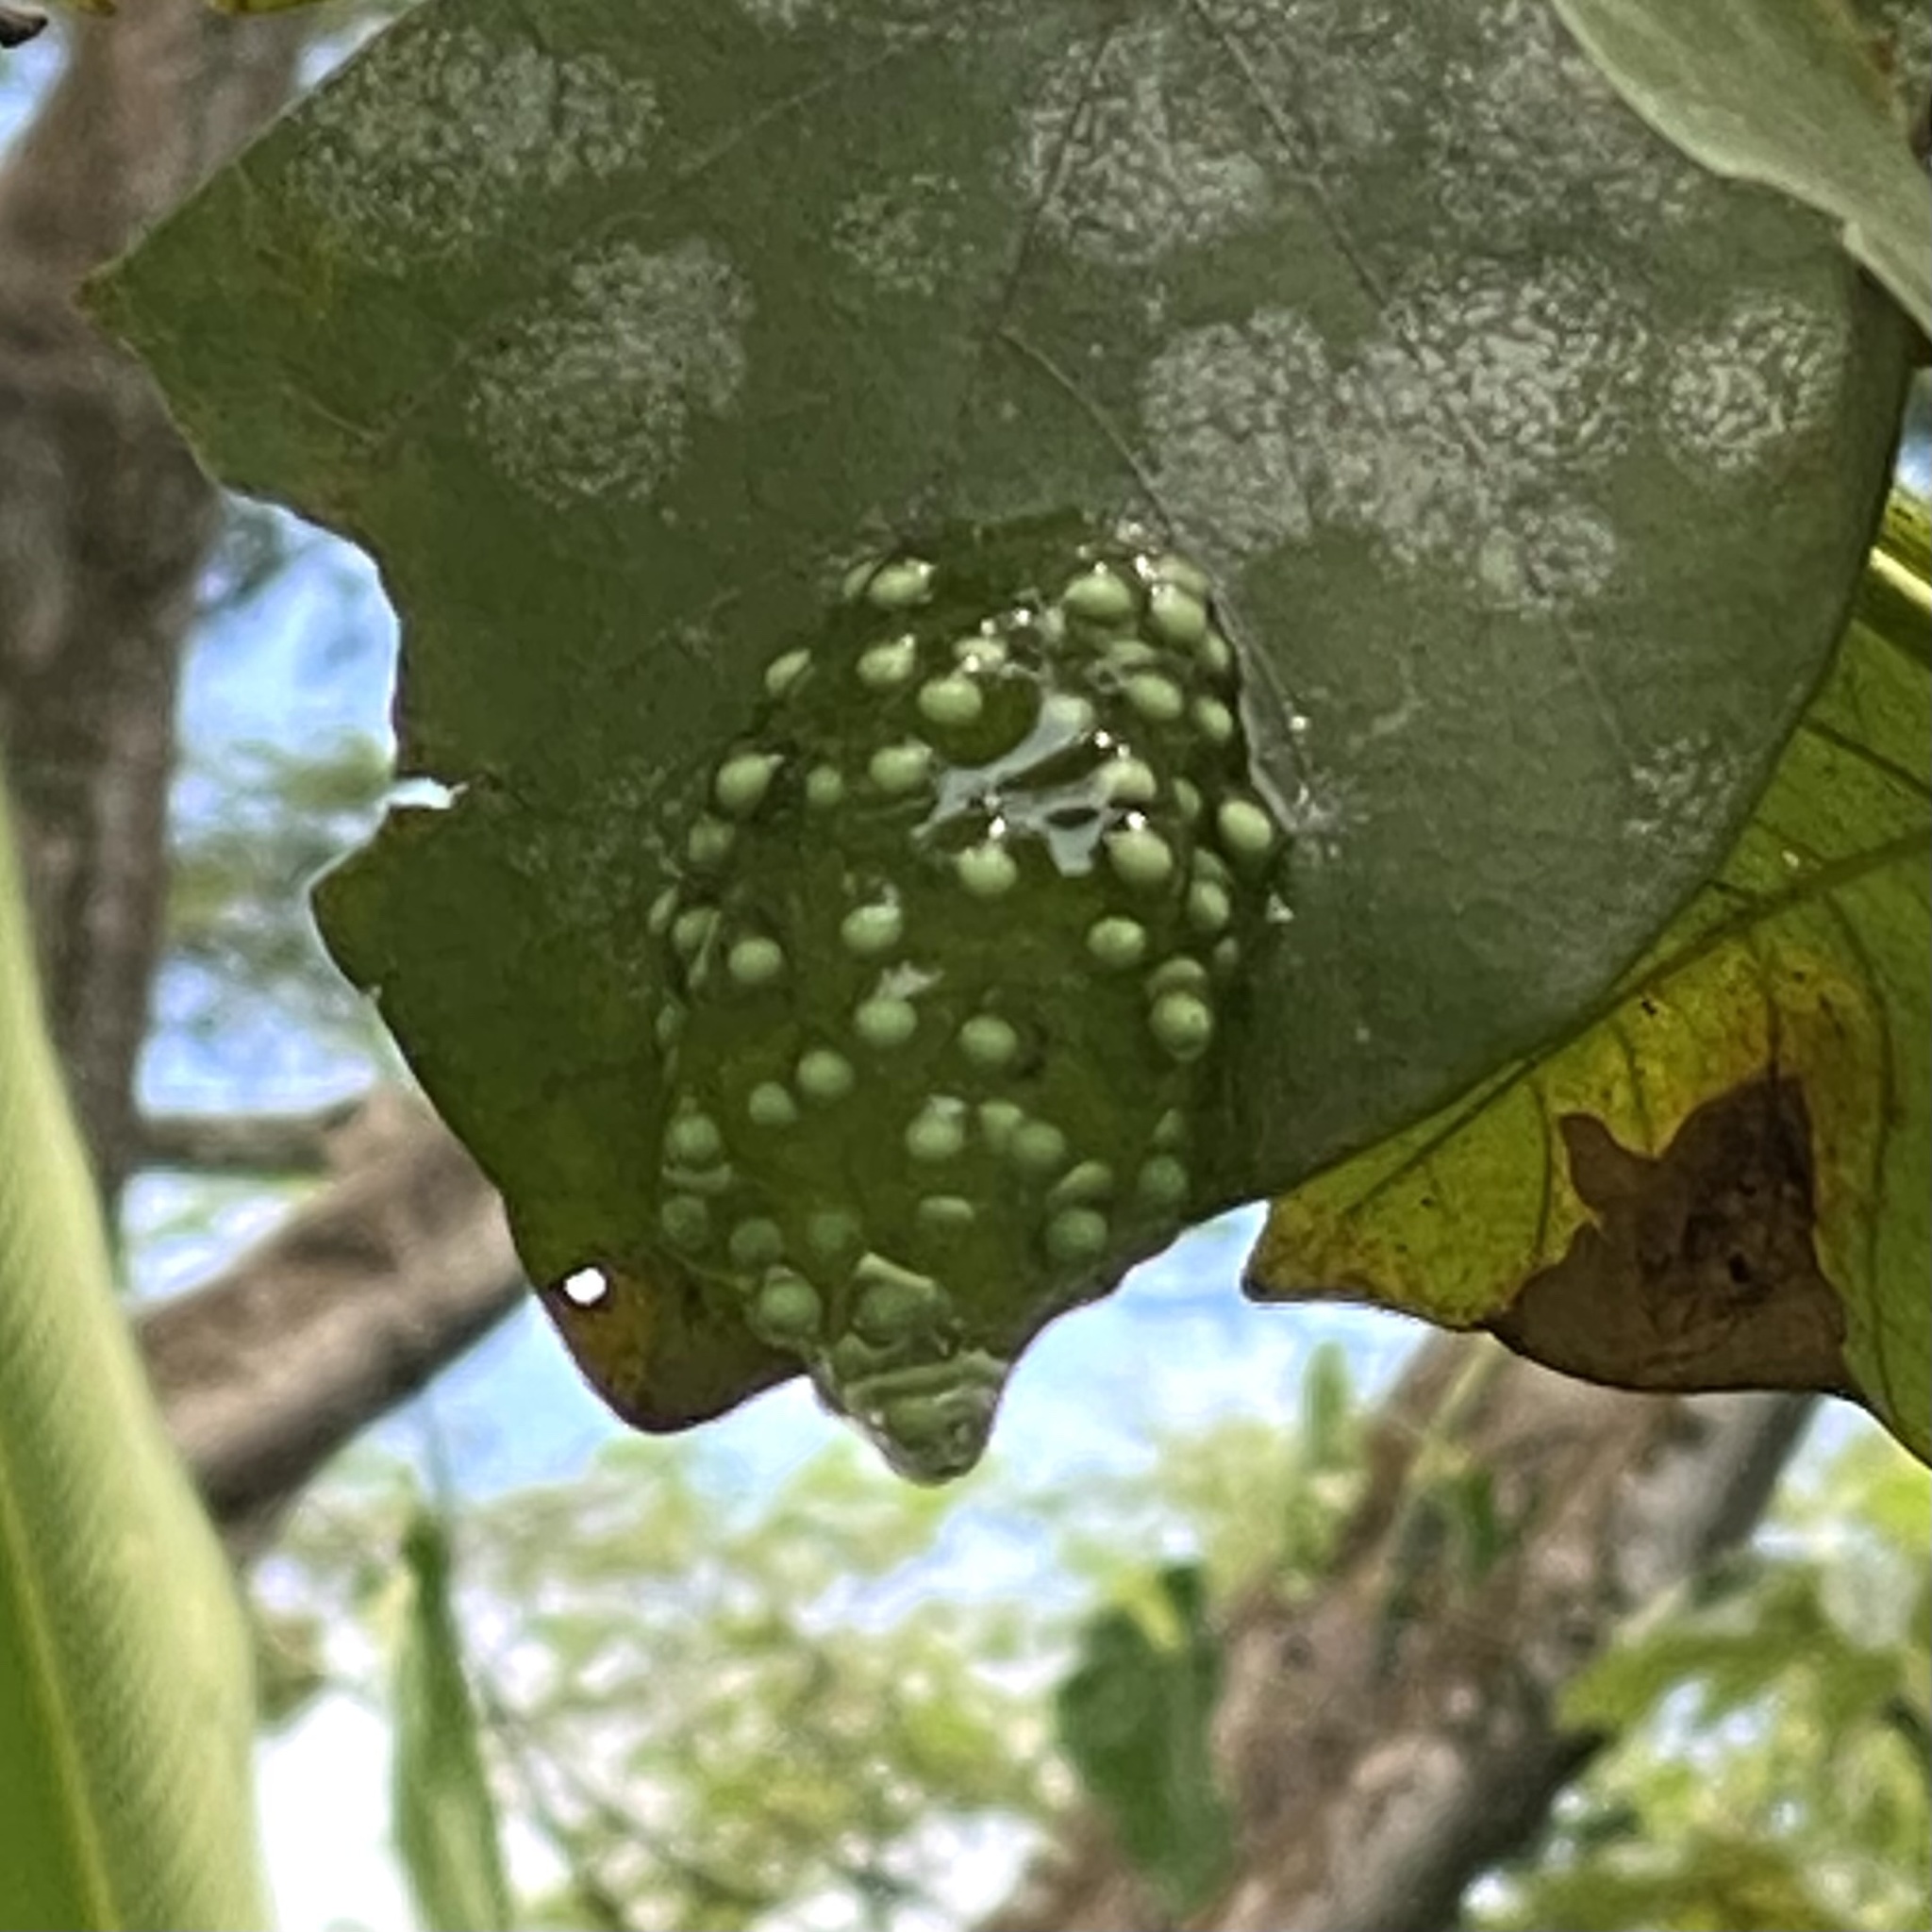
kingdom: Animalia
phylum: Chordata
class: Amphibia
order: Anura
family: Phyllomedusidae
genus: Agalychnis
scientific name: Agalychnis moreletii
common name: Black-eyed leaf frog
